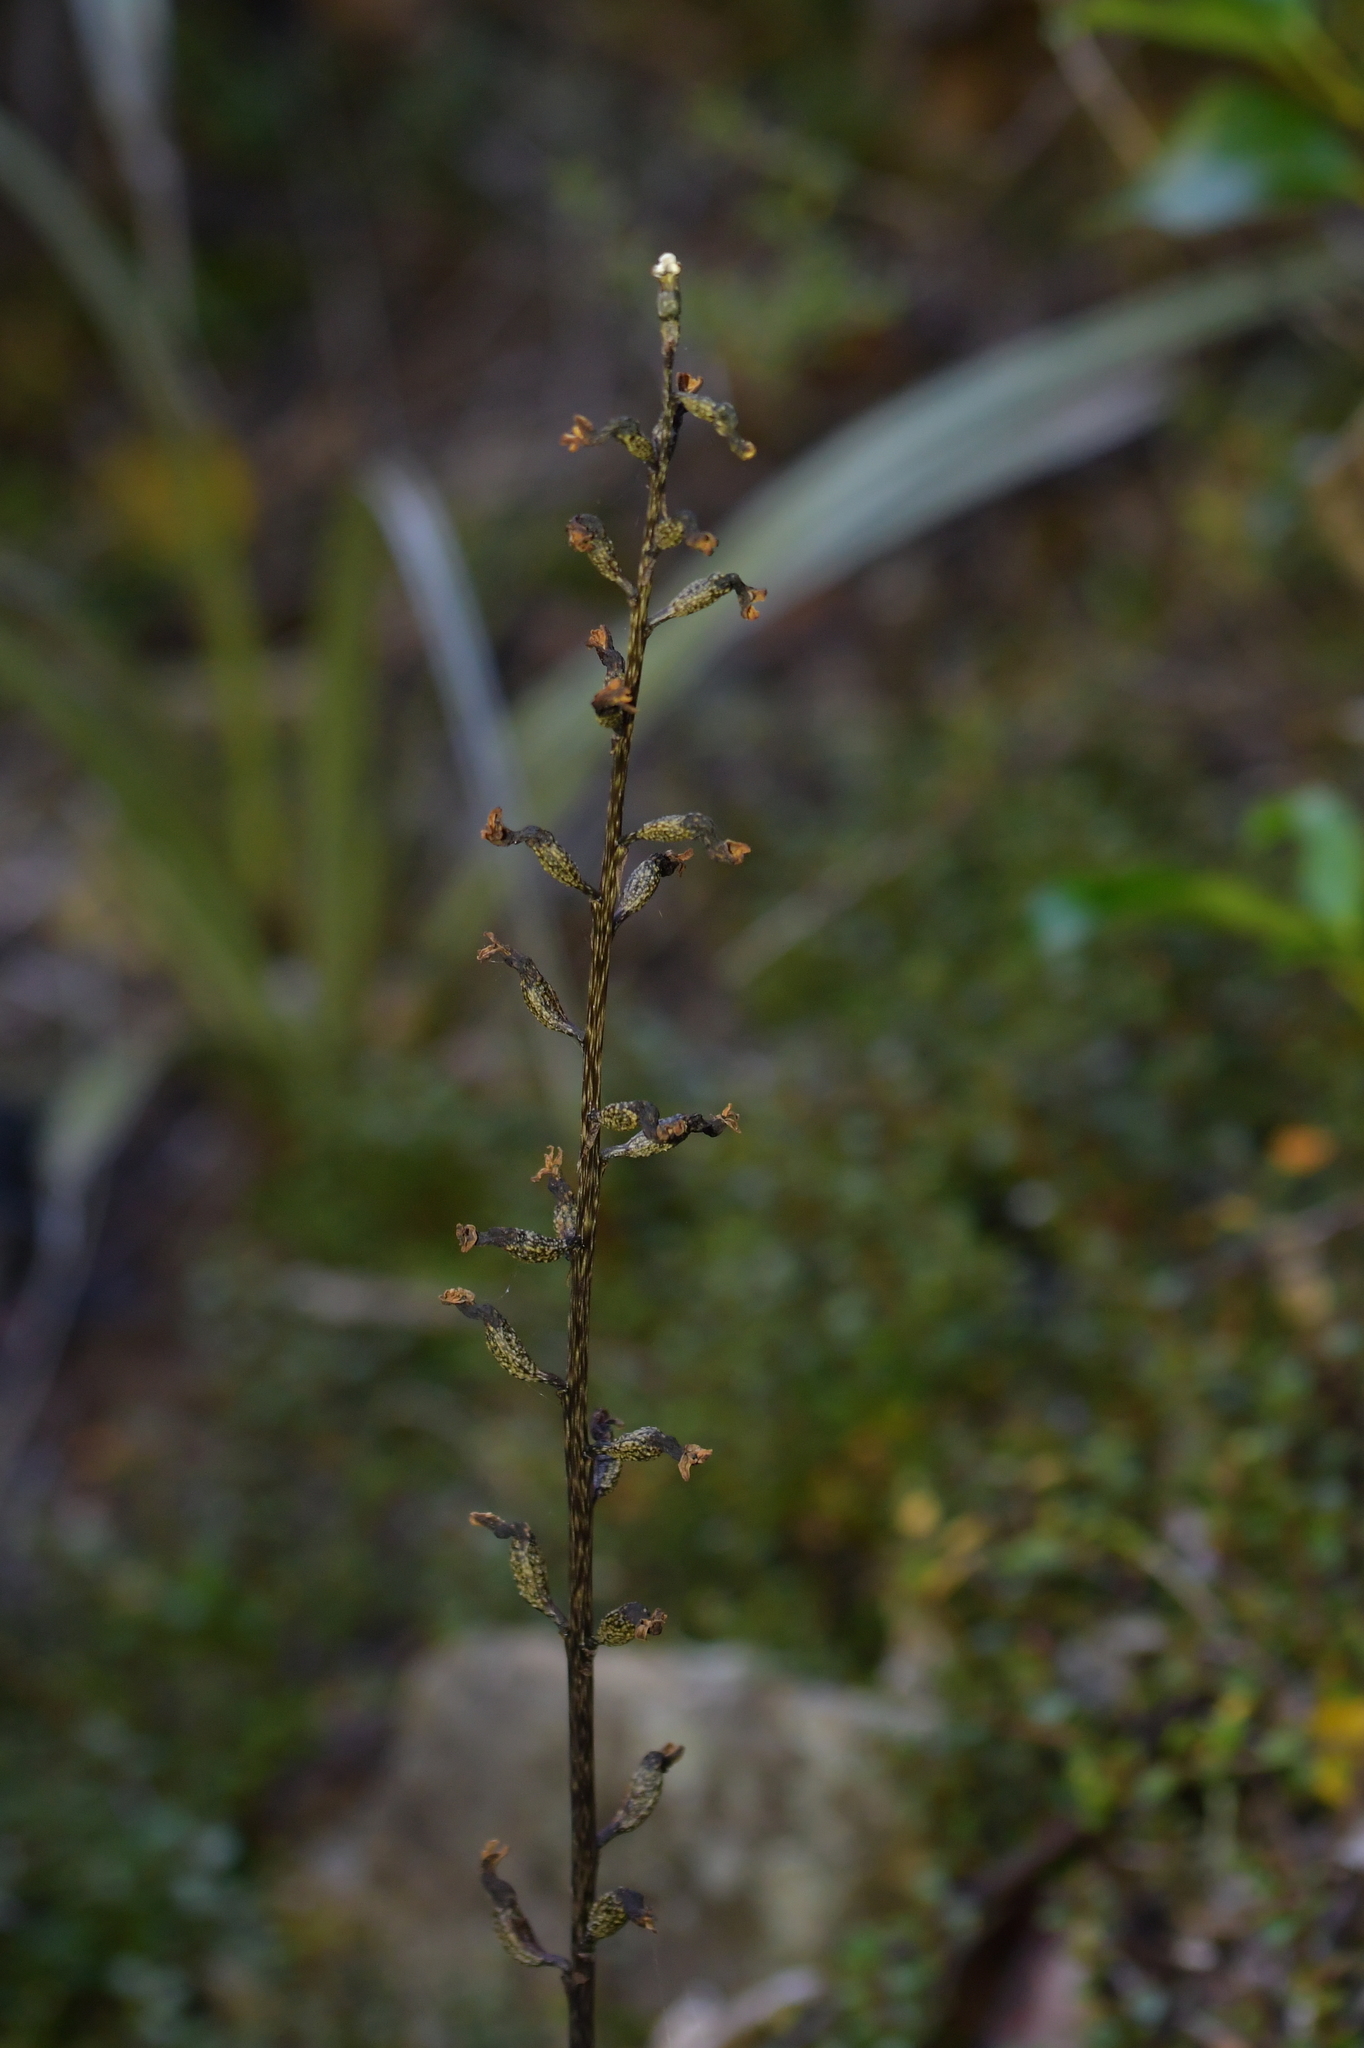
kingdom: Plantae
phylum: Tracheophyta
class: Liliopsida
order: Asparagales
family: Orchidaceae
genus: Gastrodia
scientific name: Gastrodia cunninghamii
